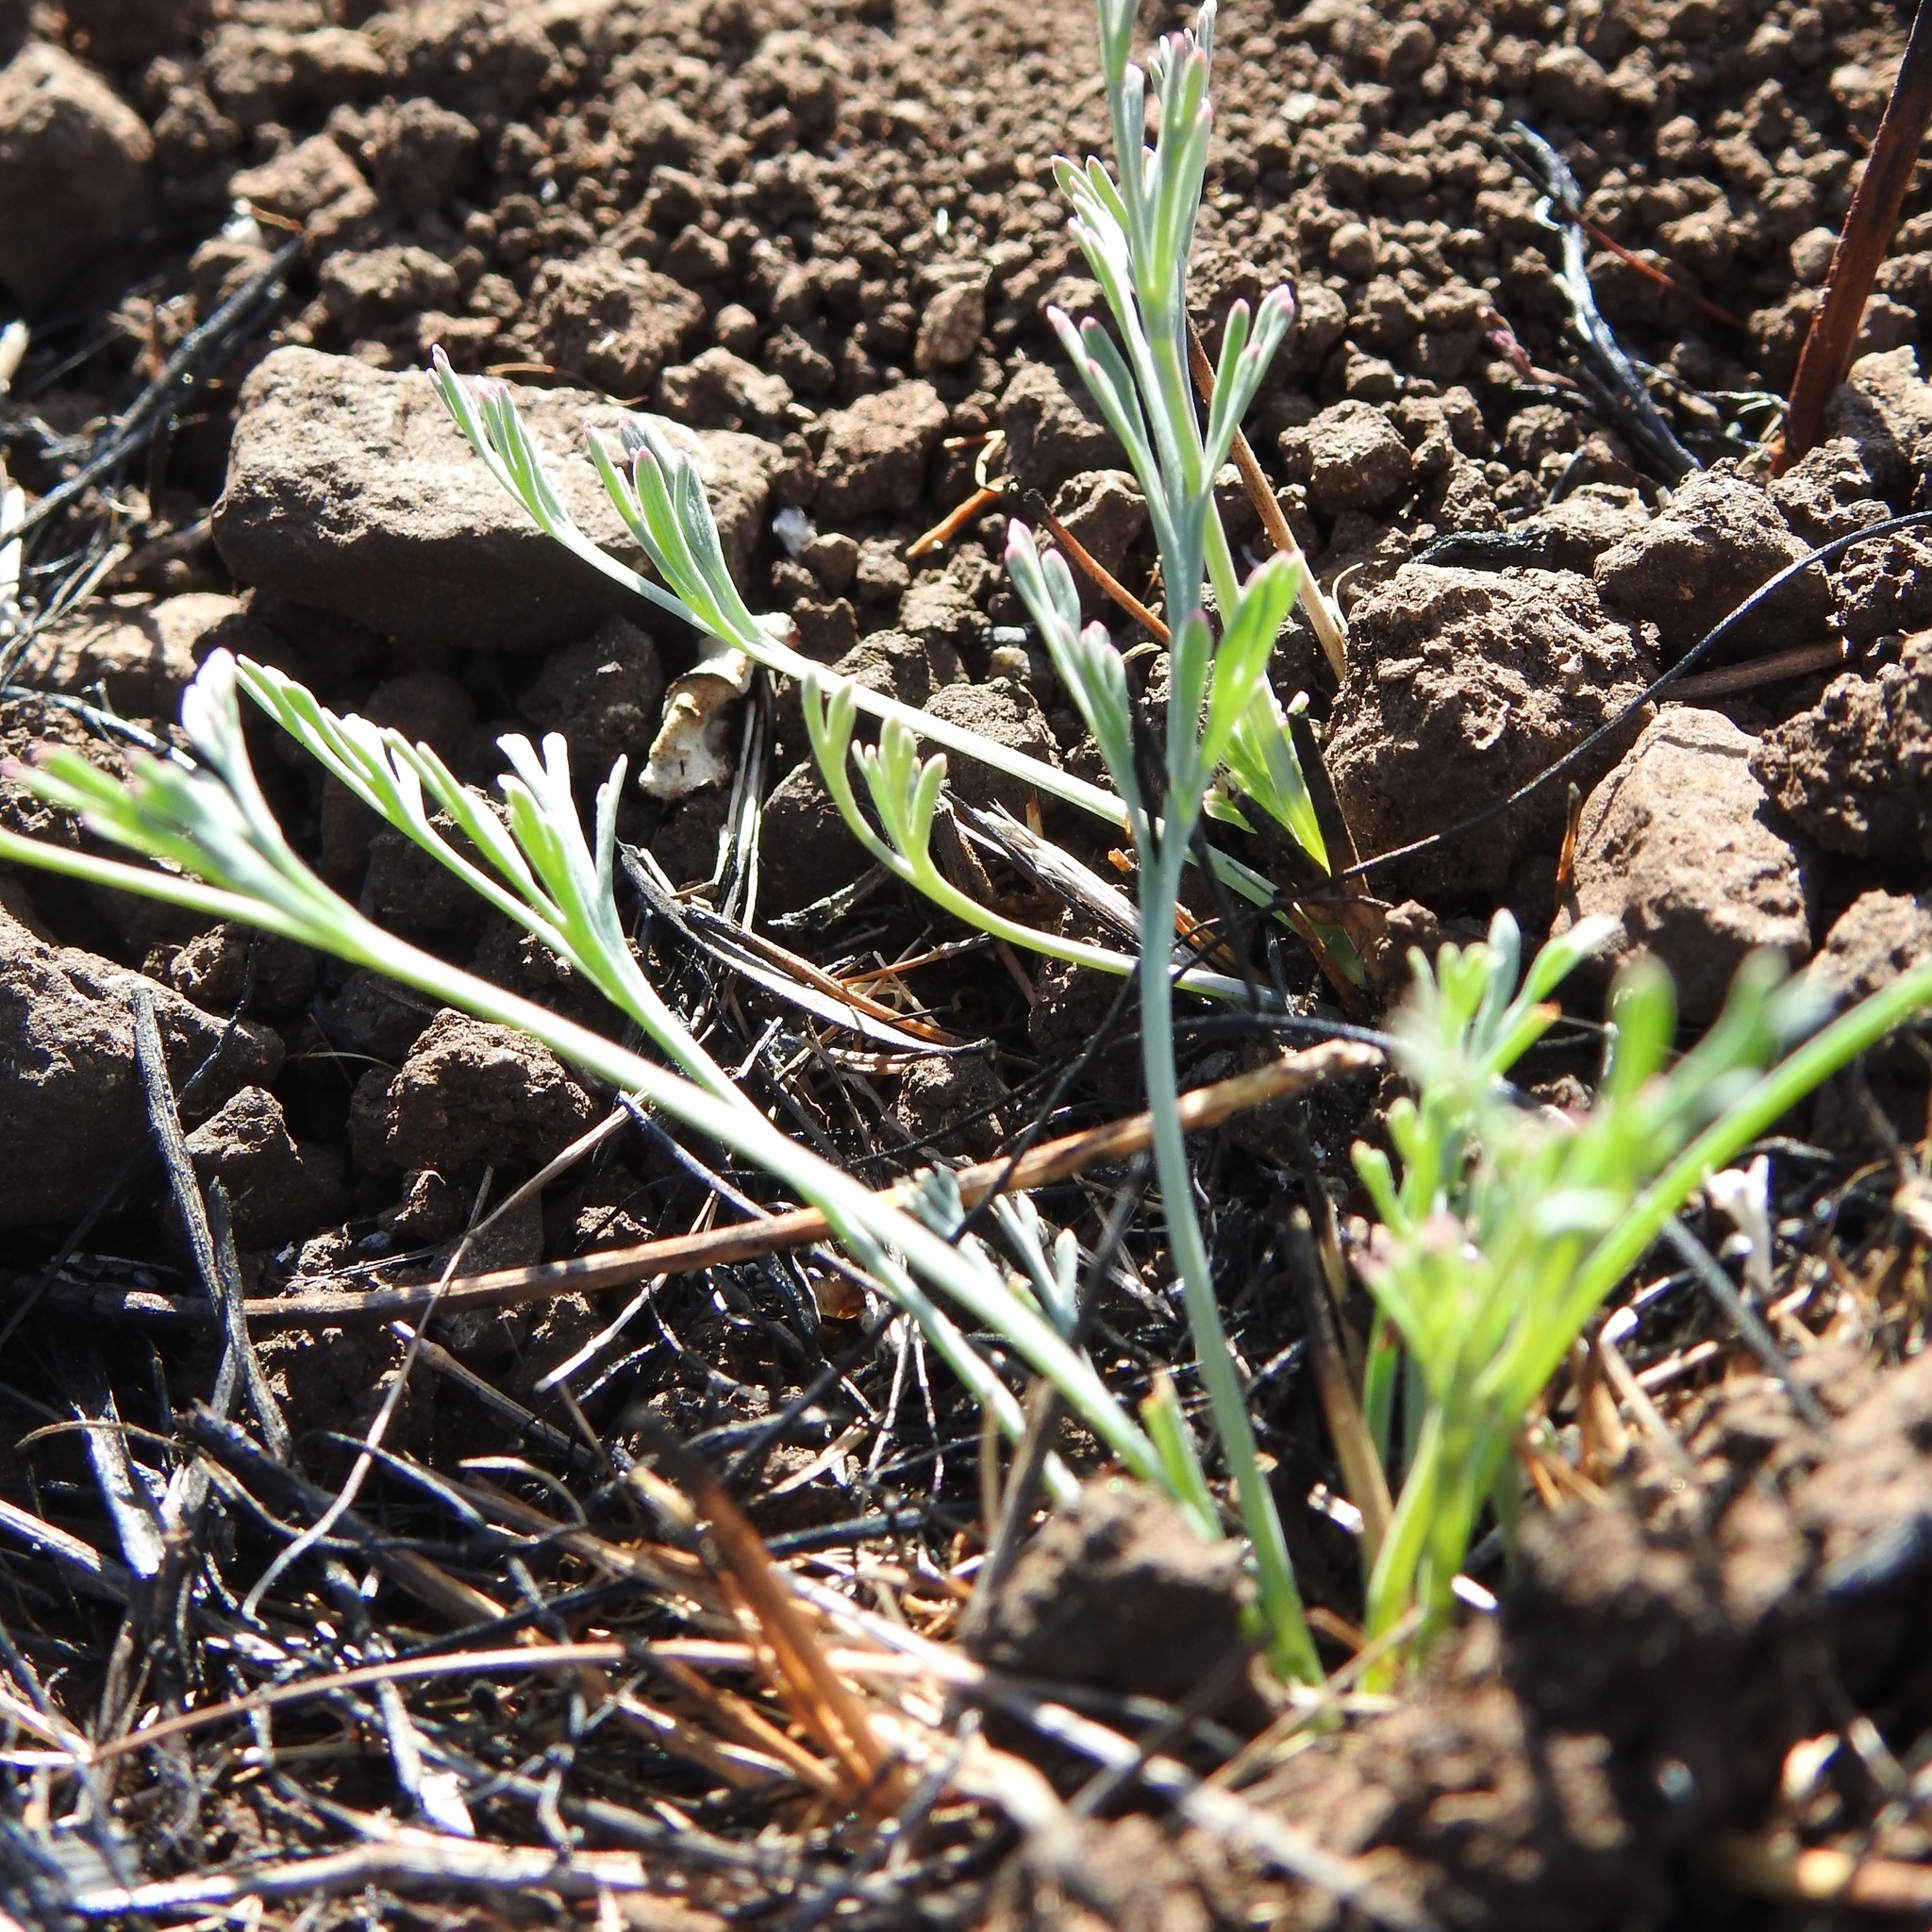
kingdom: Plantae
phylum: Tracheophyta
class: Magnoliopsida
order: Ranunculales
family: Papaveraceae
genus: Eschscholzia
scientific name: Eschscholzia californica
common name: California poppy
